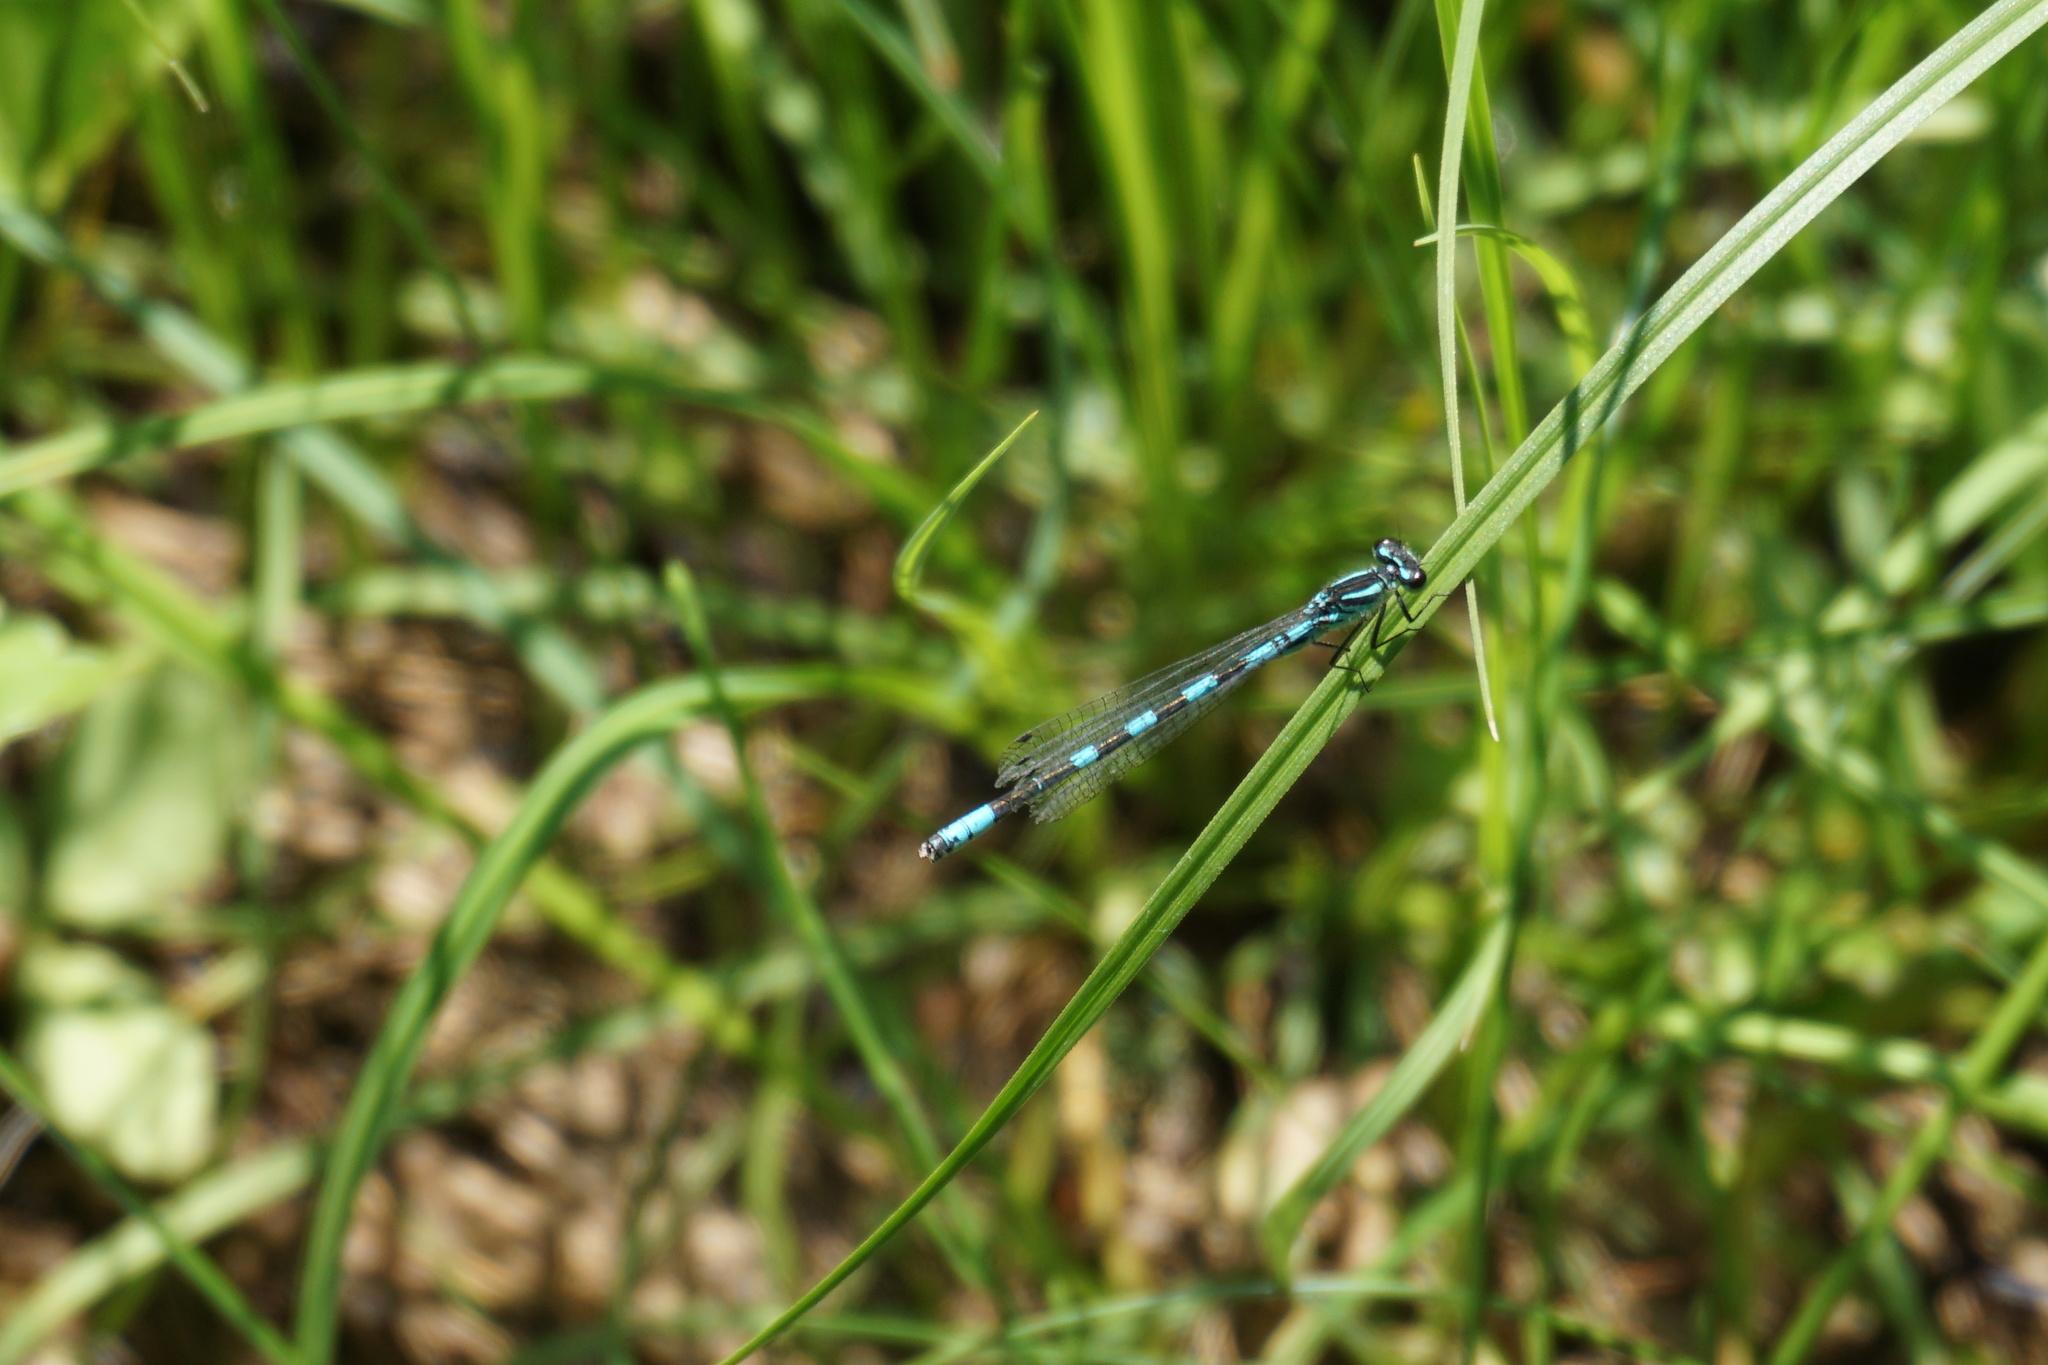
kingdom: Animalia
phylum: Arthropoda
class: Insecta
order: Odonata
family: Coenagrionidae
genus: Coenagrion
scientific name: Coenagrion hastulatum
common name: Spearhead bluet
